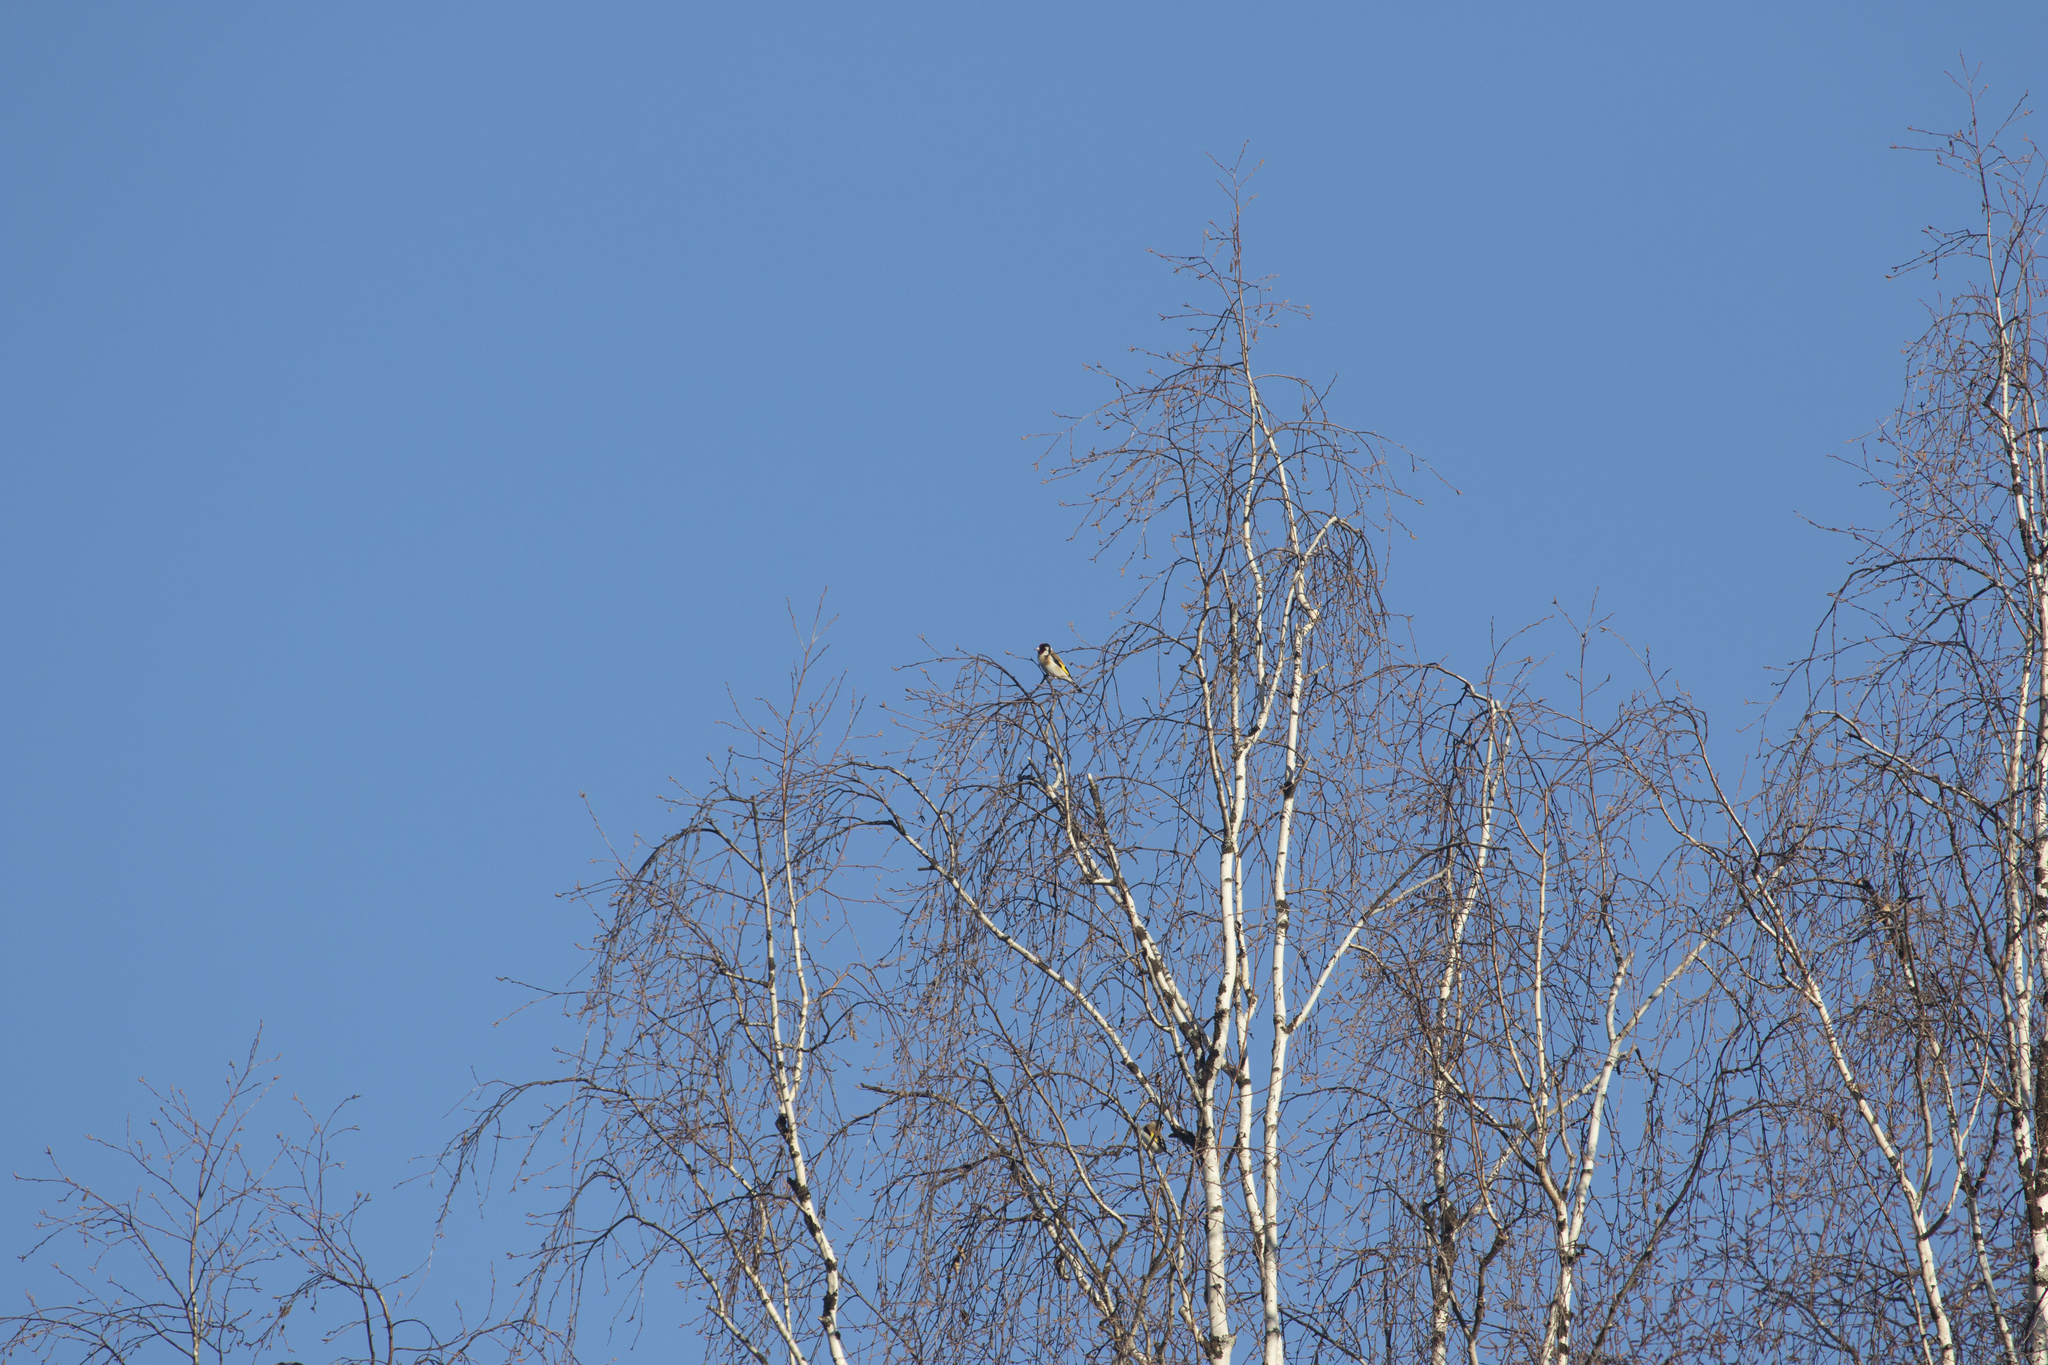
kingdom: Animalia
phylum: Chordata
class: Aves
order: Passeriformes
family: Fringillidae
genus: Carduelis
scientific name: Carduelis carduelis
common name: European goldfinch
